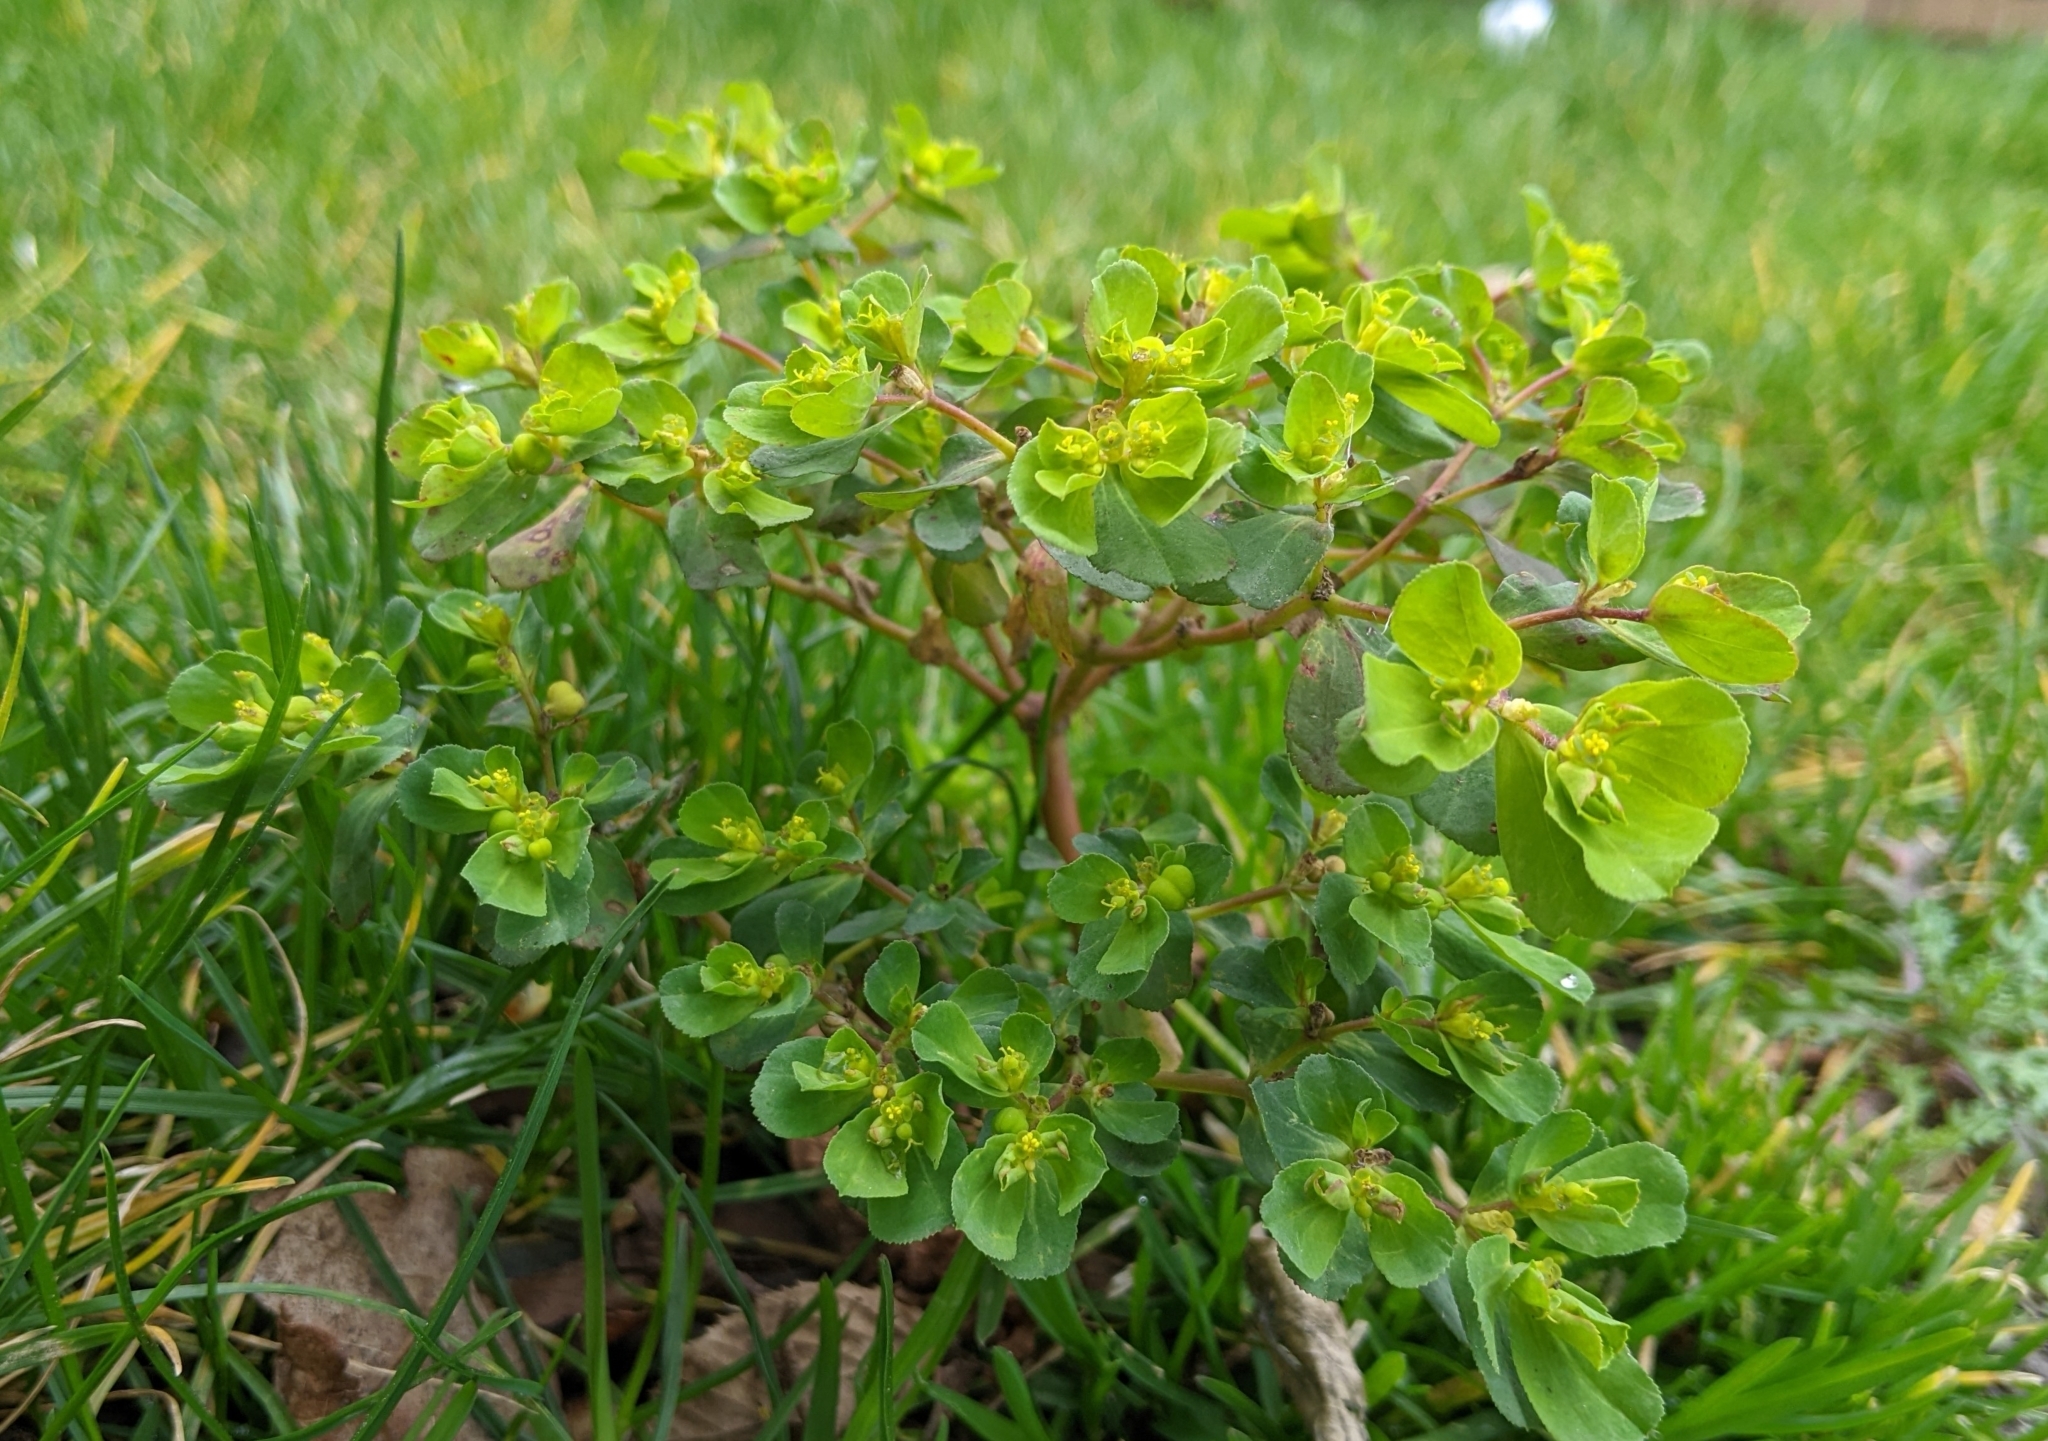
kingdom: Plantae
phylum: Tracheophyta
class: Magnoliopsida
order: Malpighiales
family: Euphorbiaceae
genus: Euphorbia
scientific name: Euphorbia helioscopia
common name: Sun spurge
